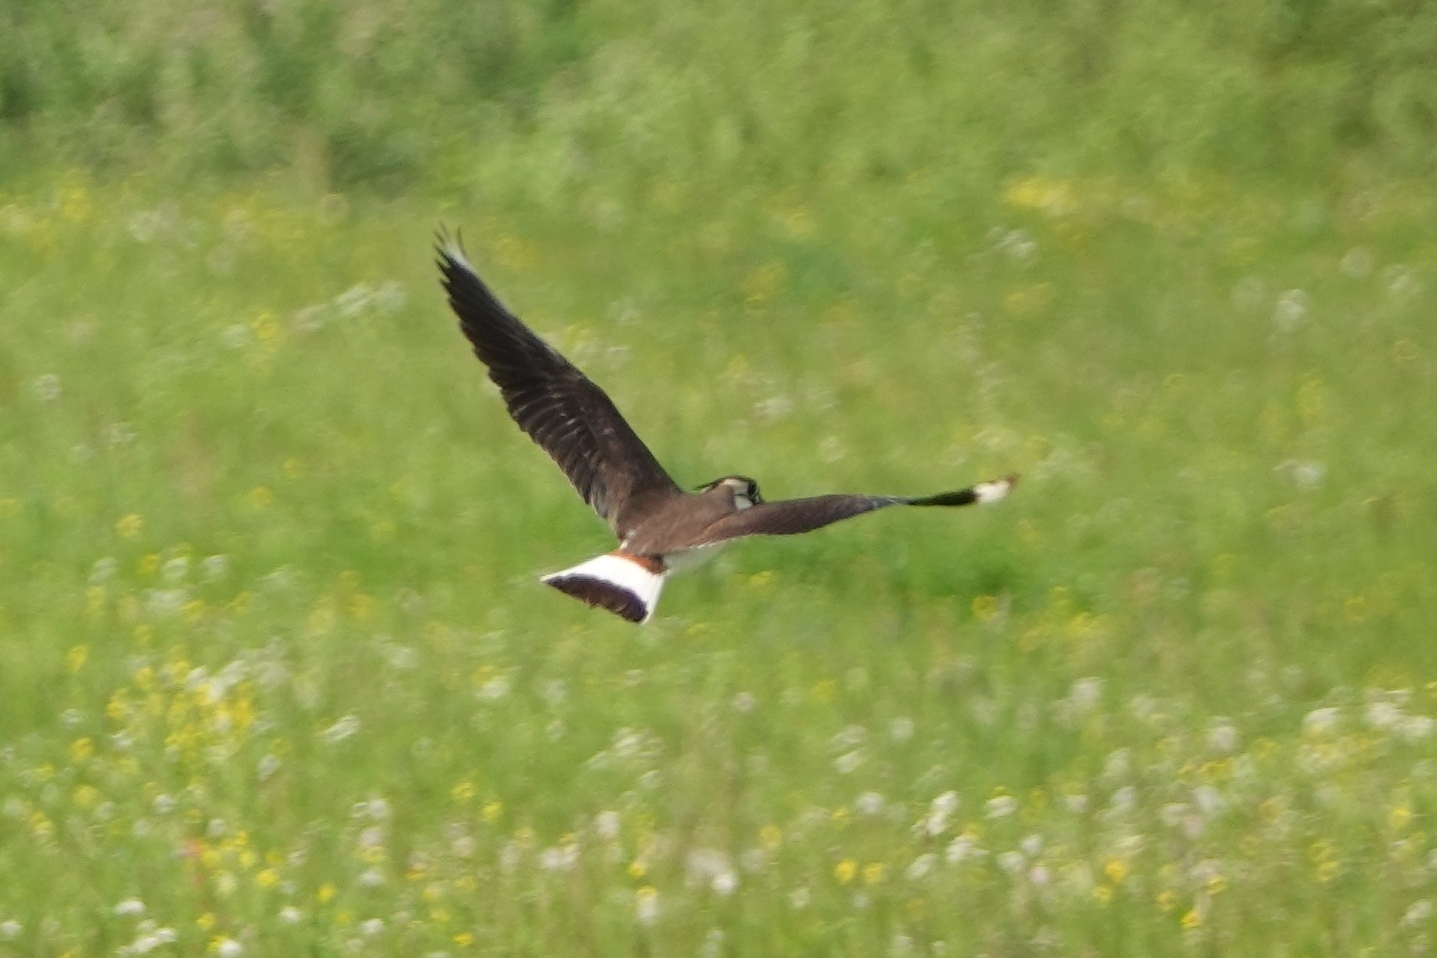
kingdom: Animalia
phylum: Chordata
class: Aves
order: Charadriiformes
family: Charadriidae
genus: Vanellus
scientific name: Vanellus vanellus
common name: Northern lapwing
